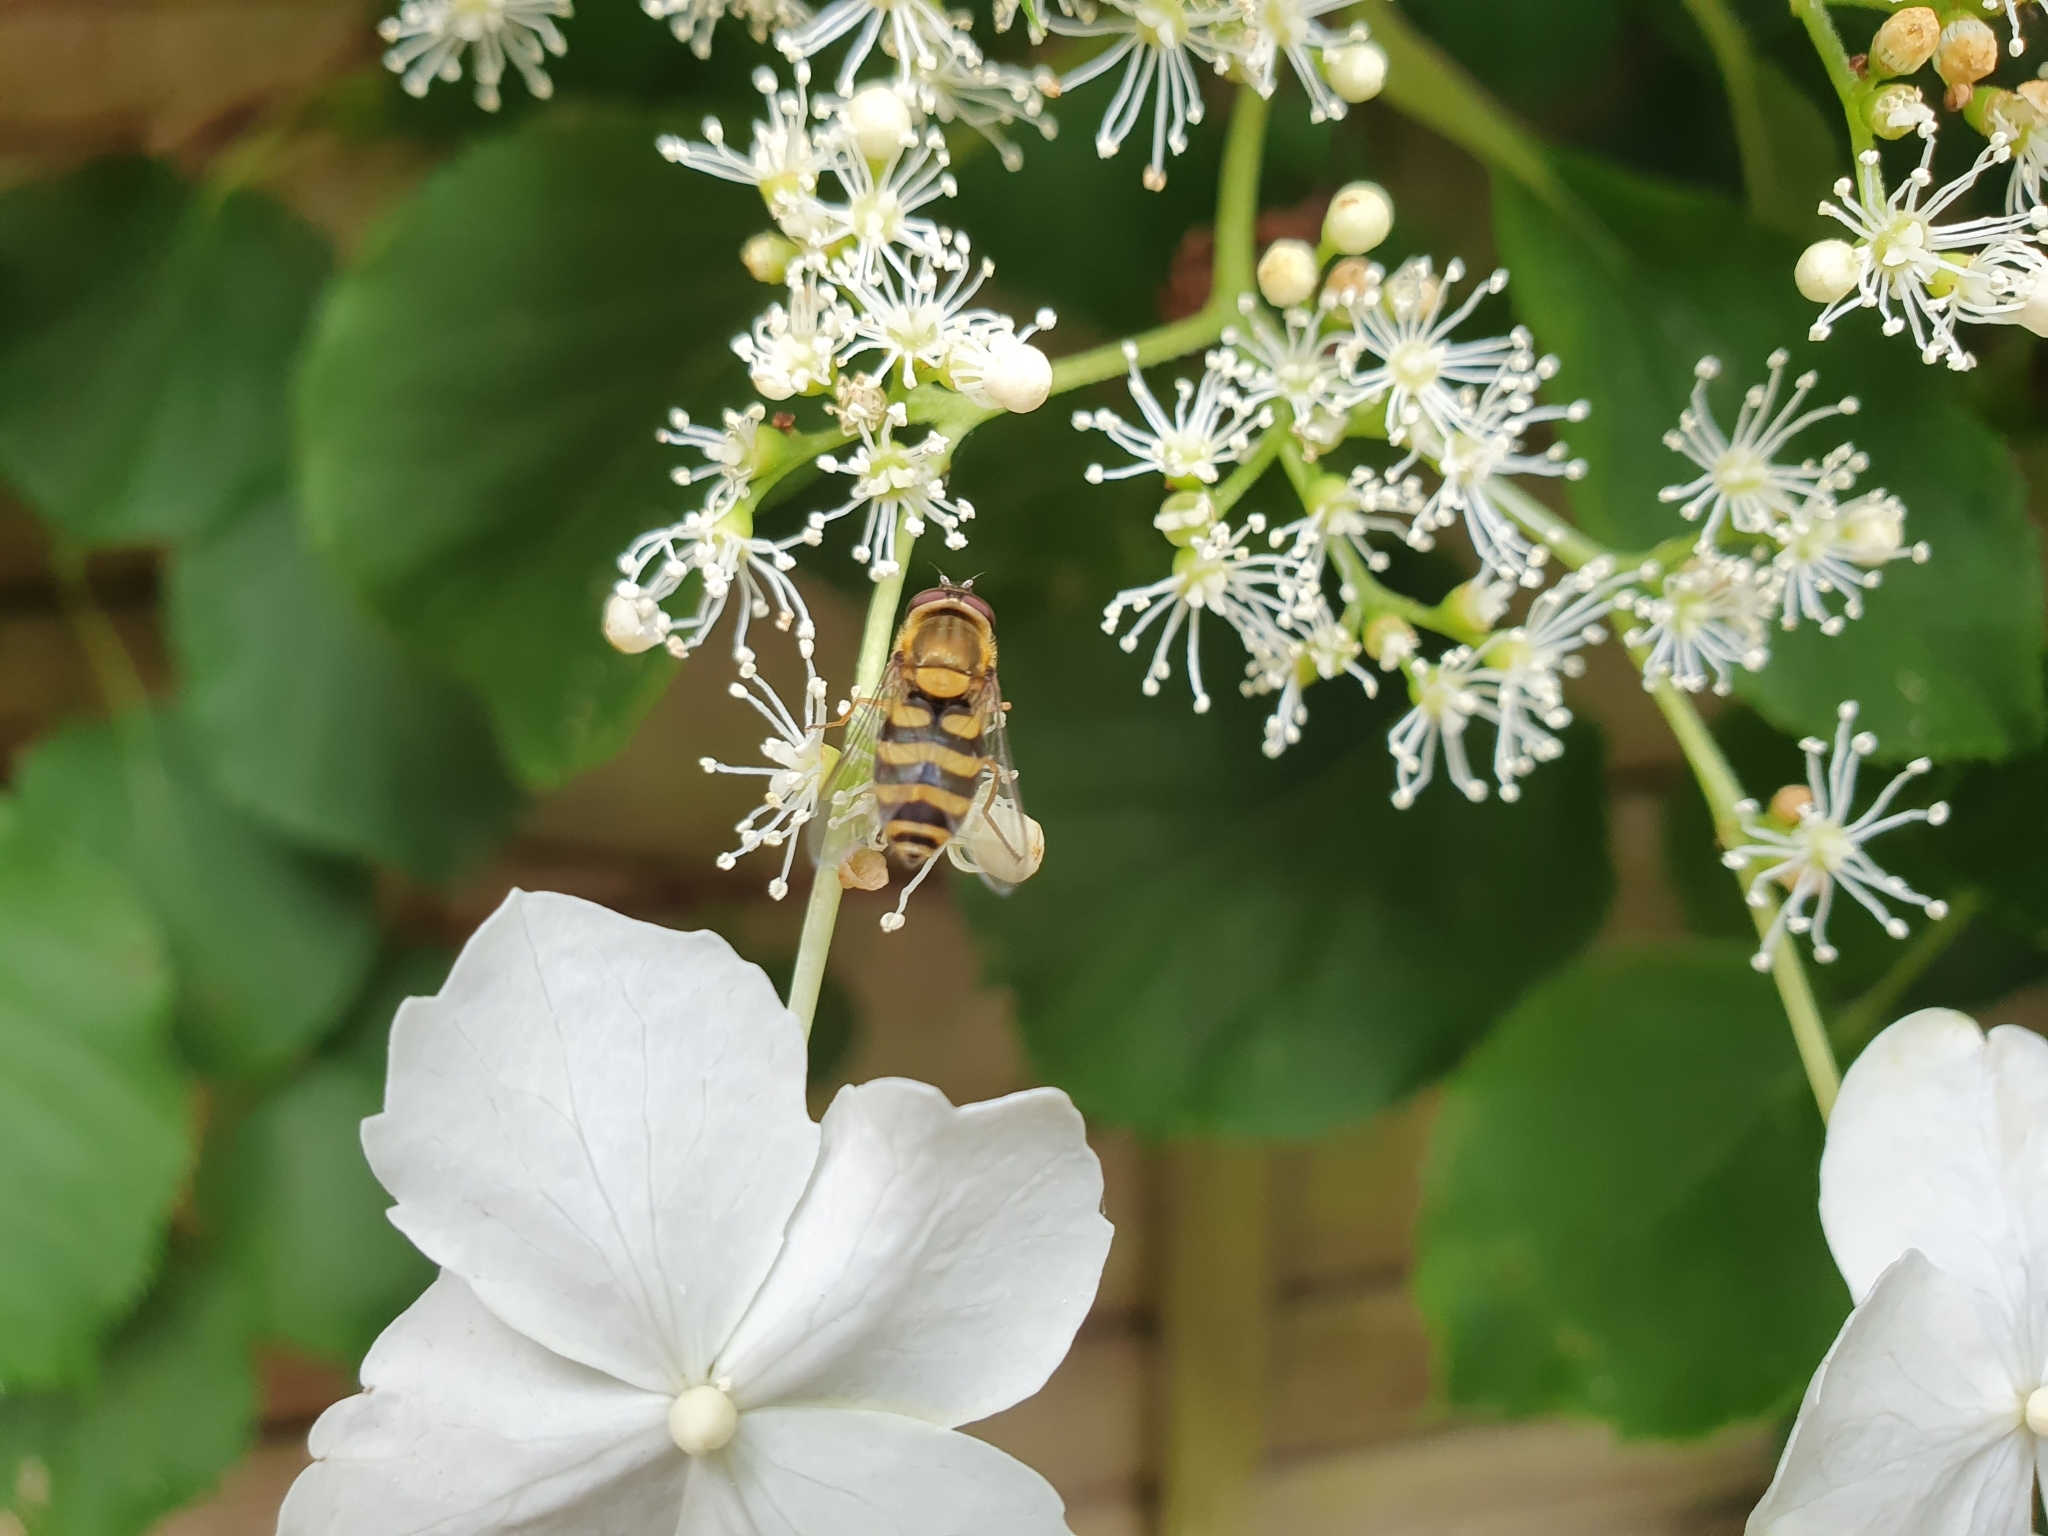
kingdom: Animalia
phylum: Arthropoda
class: Insecta
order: Diptera
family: Syrphidae
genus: Syrphus
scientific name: Syrphus
